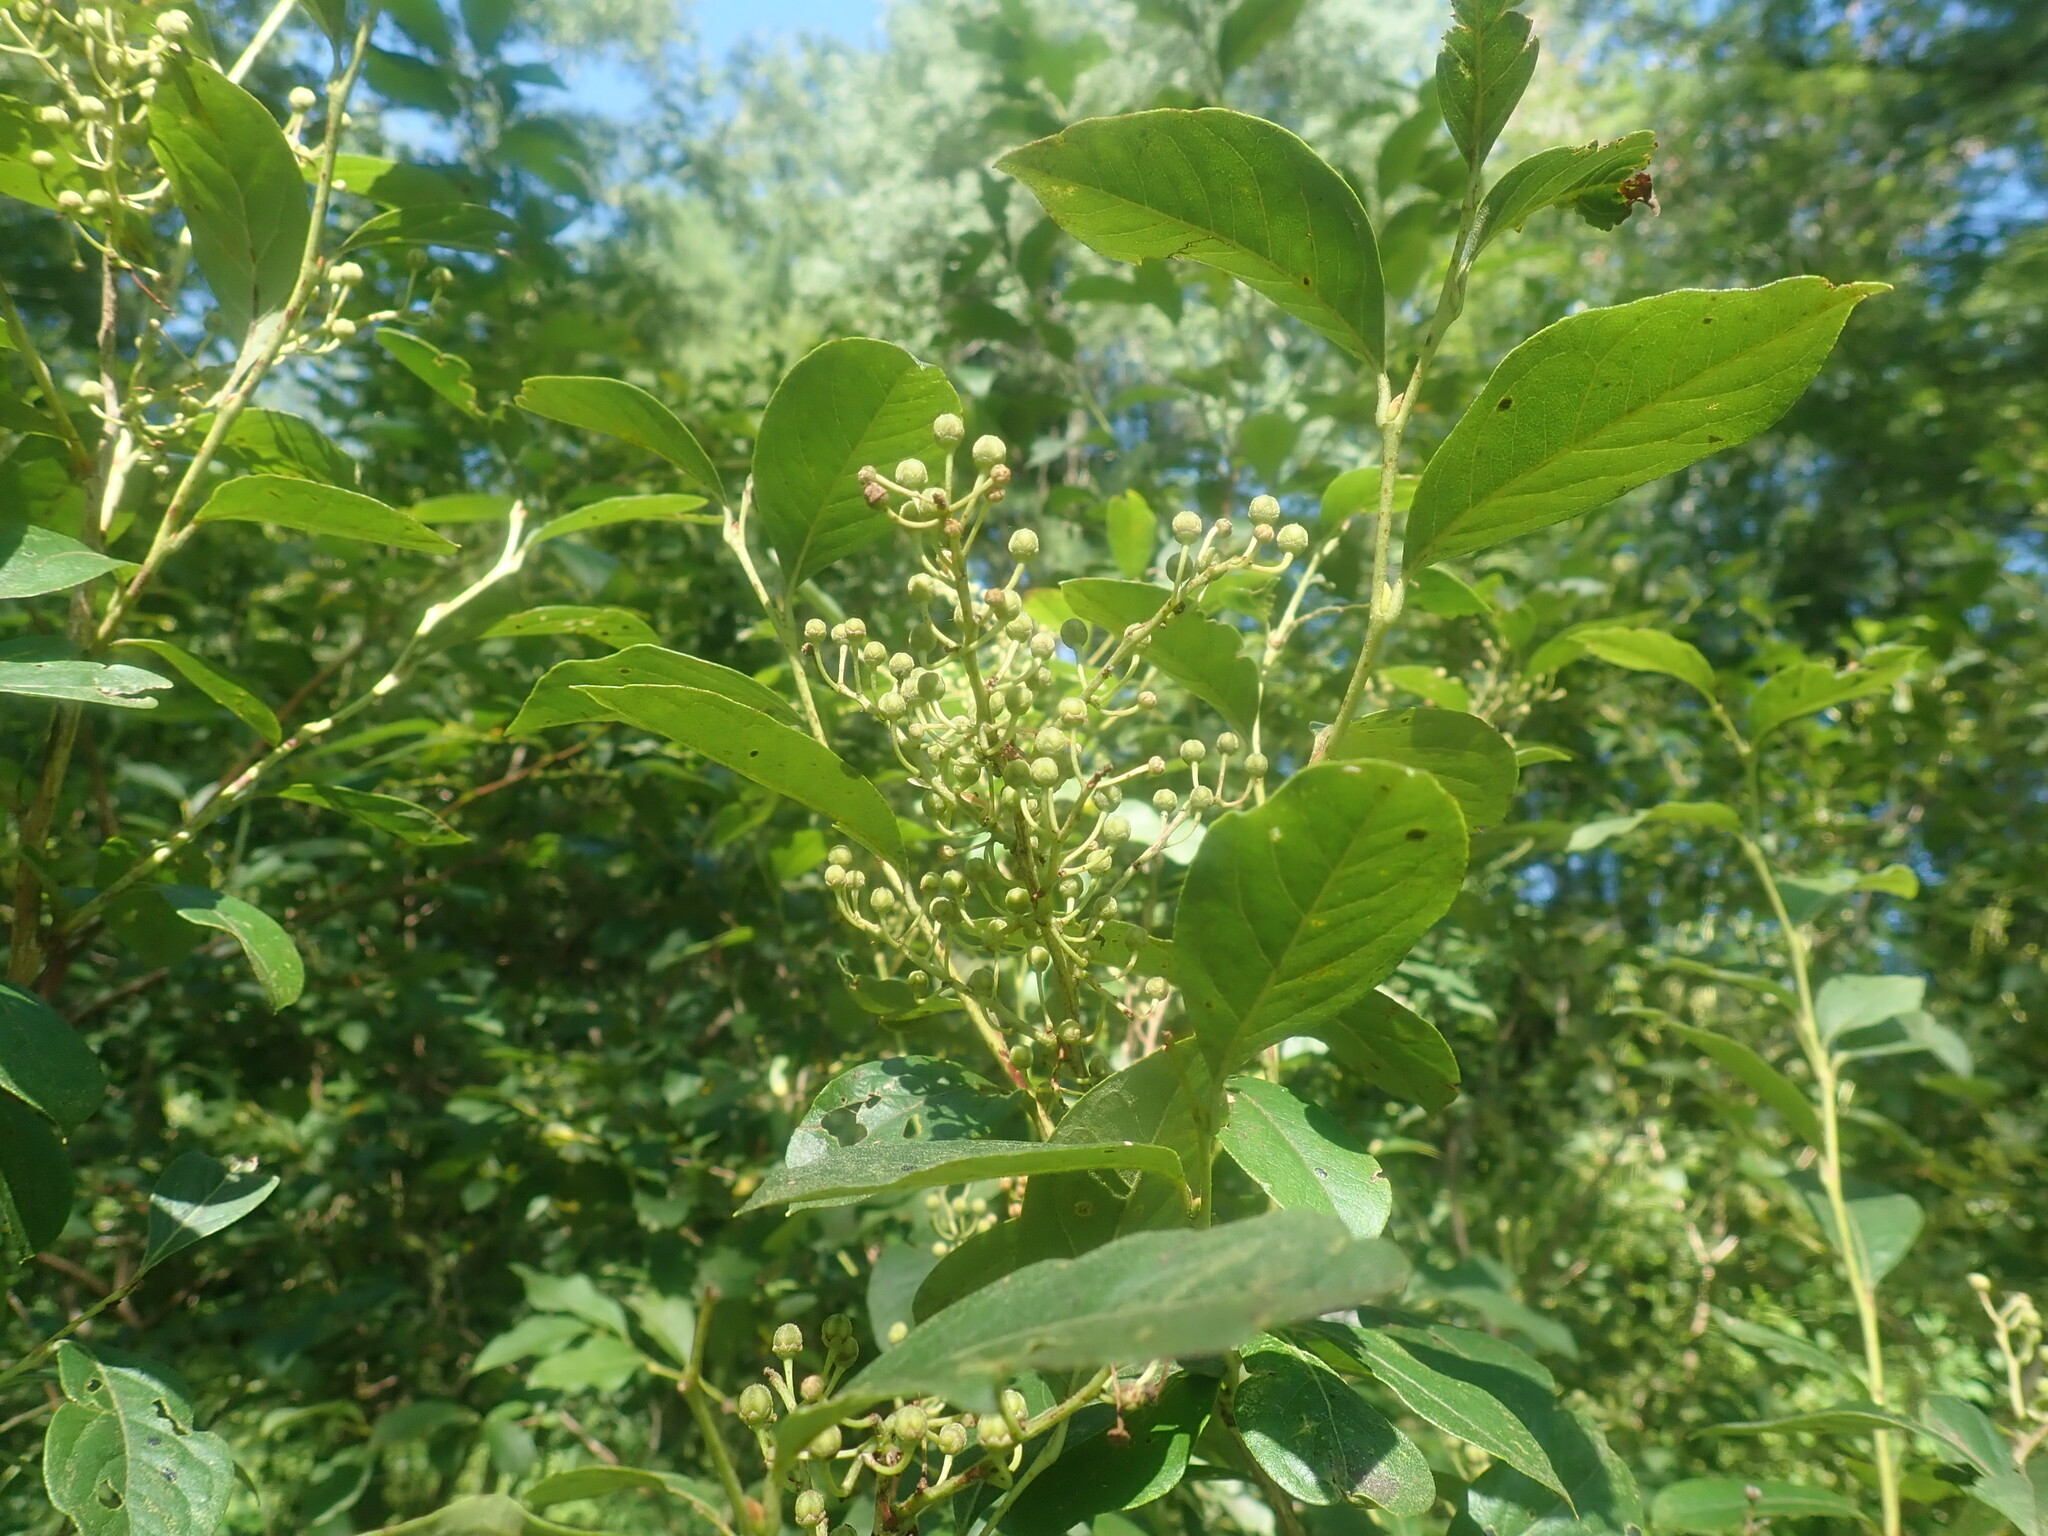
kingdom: Plantae
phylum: Tracheophyta
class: Magnoliopsida
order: Ericales
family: Ericaceae
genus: Lyonia
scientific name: Lyonia ligustrina
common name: Maleberry
